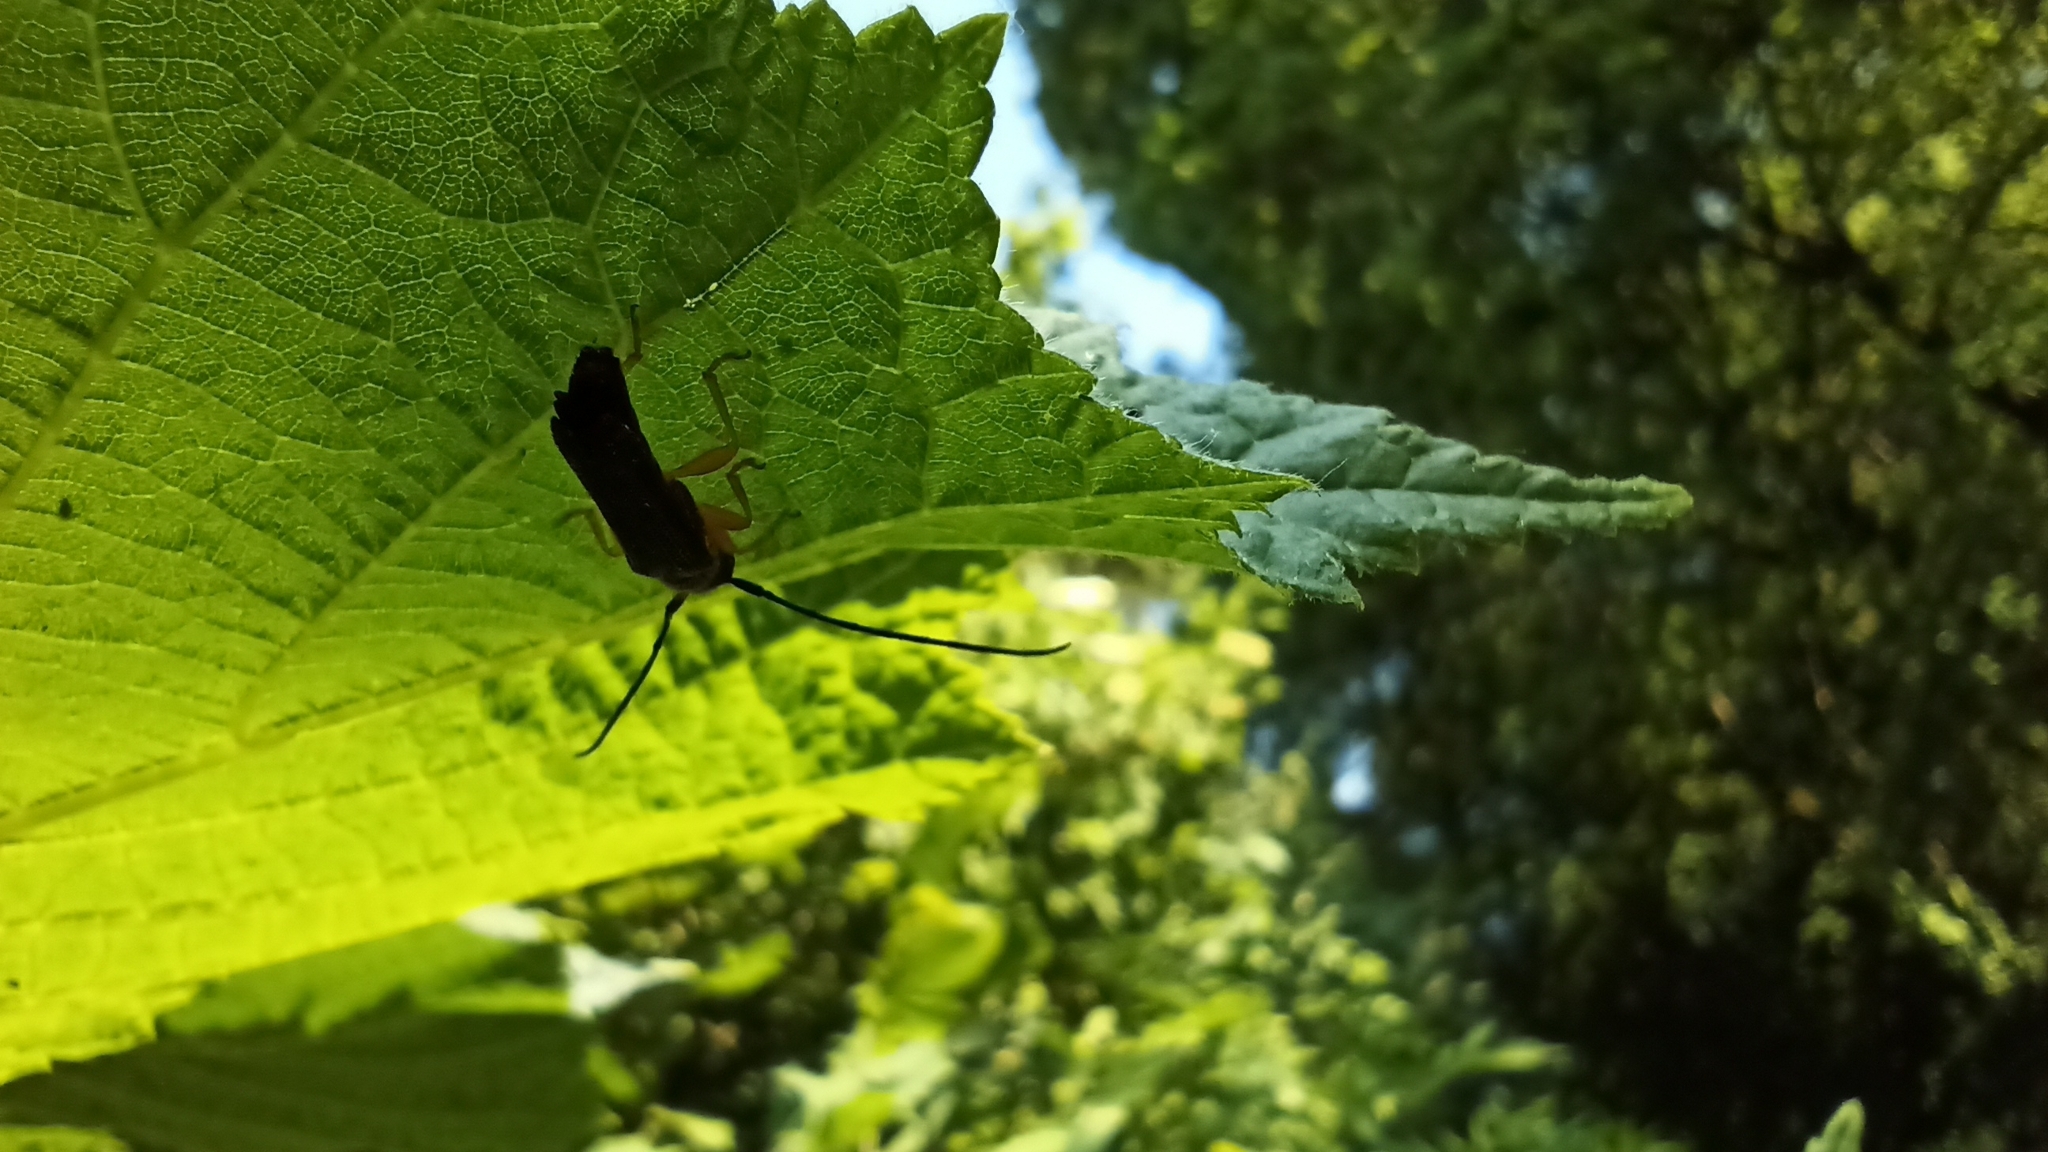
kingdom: Animalia
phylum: Arthropoda
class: Insecta
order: Coleoptera
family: Cerambycidae
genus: Oberea
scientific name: Oberea linearis
